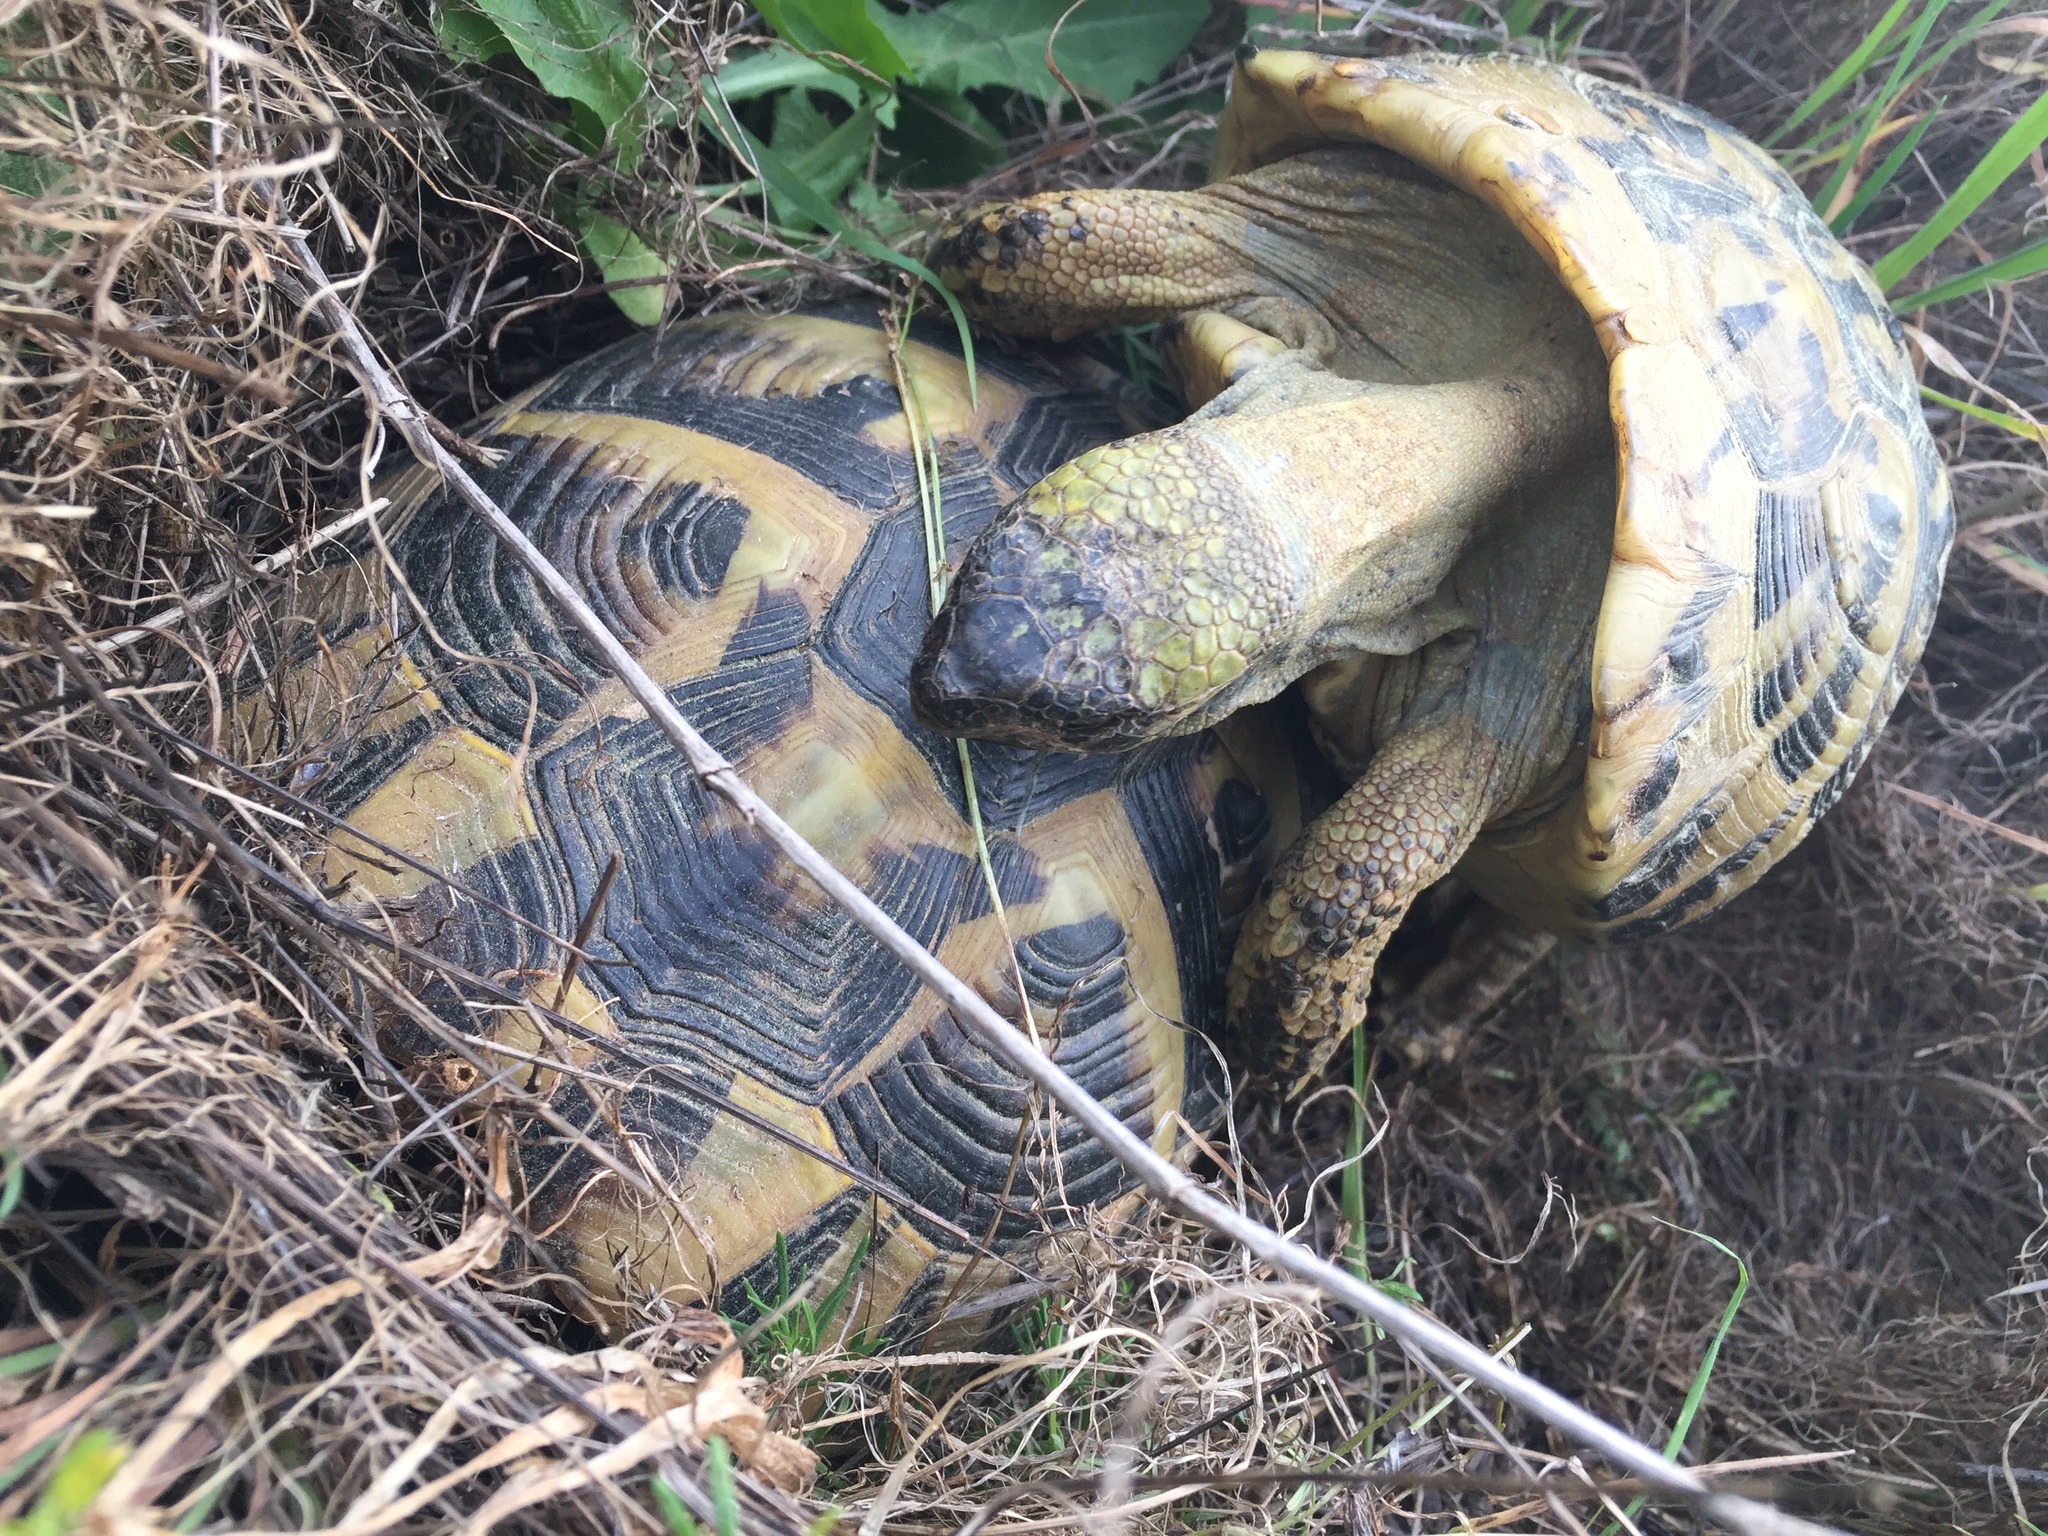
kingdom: Animalia
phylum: Chordata
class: Testudines
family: Testudinidae
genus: Testudo
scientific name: Testudo hermanni
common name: Hermann's tortoise
